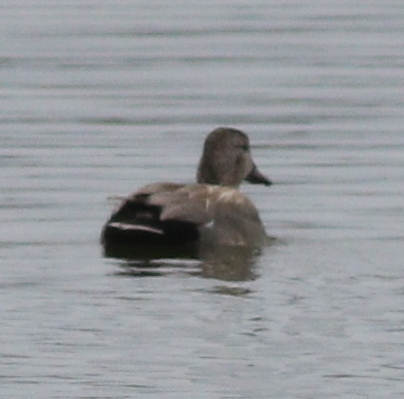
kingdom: Animalia
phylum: Chordata
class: Aves
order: Anseriformes
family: Anatidae
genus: Mareca
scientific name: Mareca strepera
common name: Gadwall
